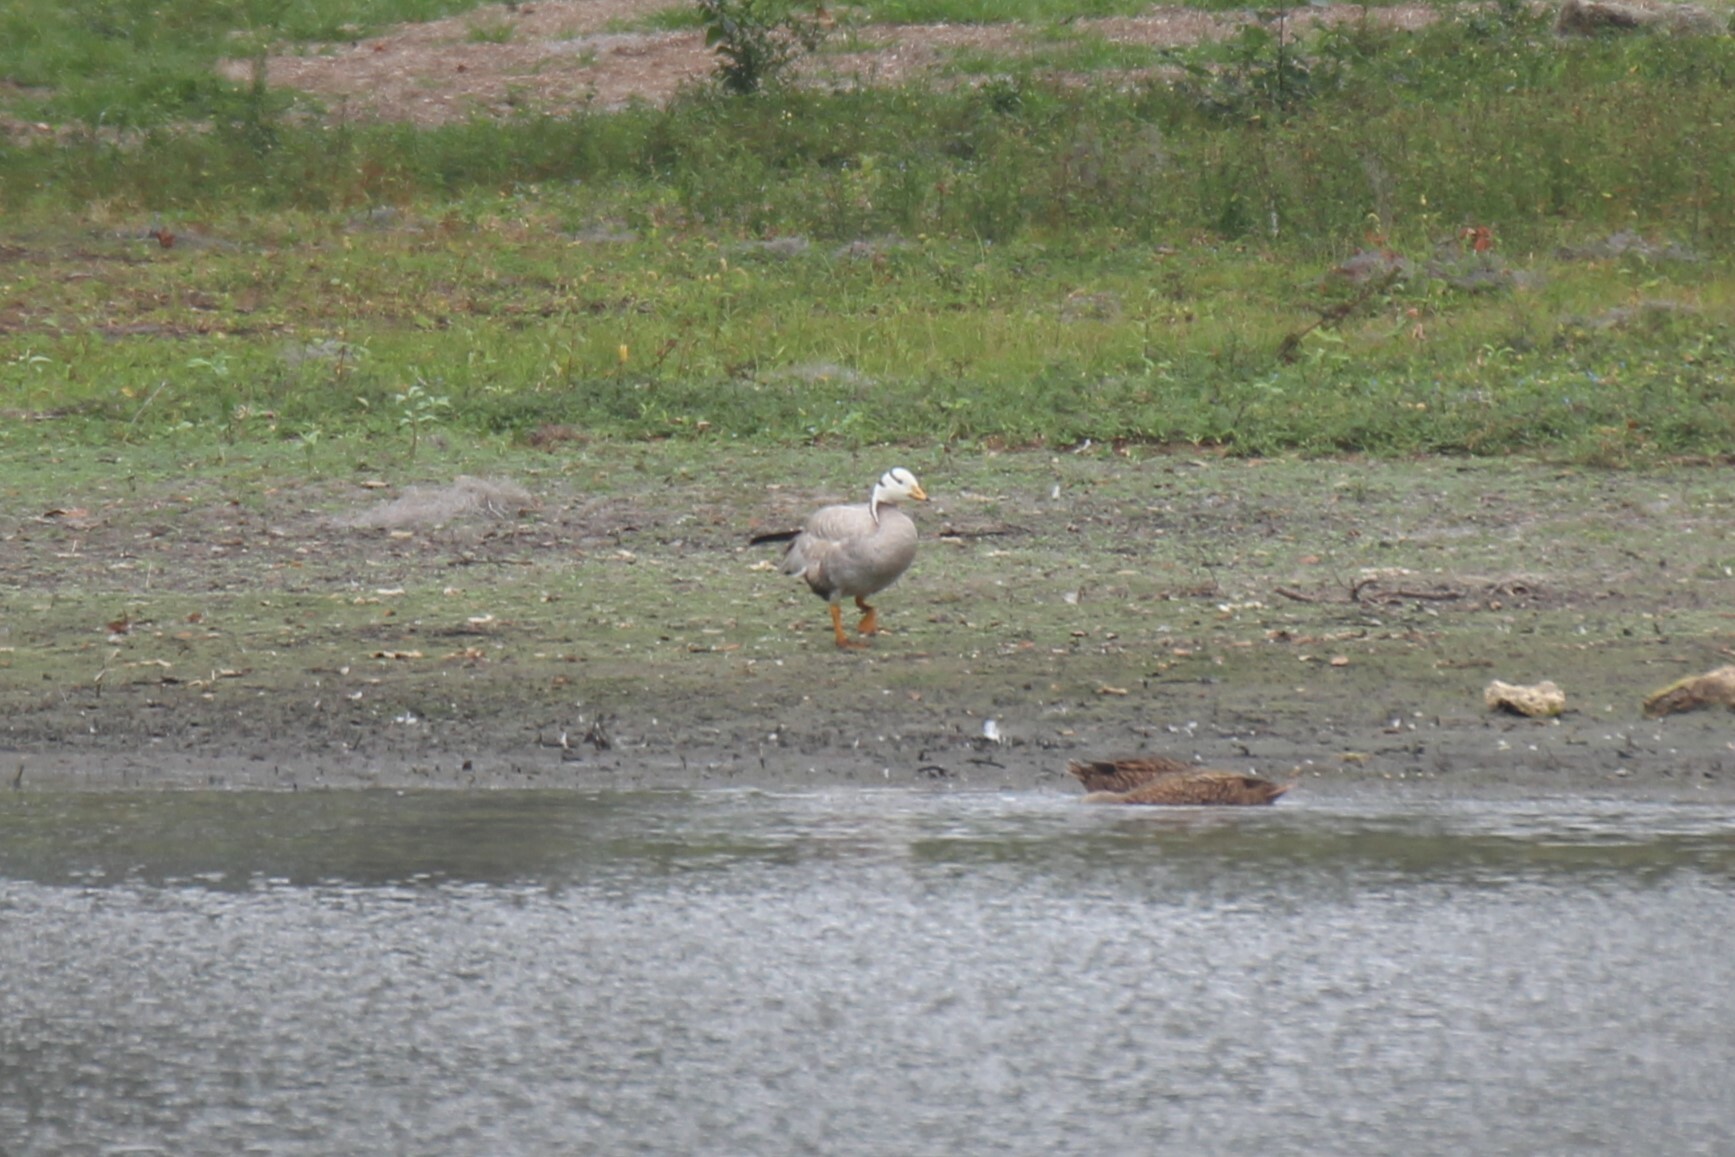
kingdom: Animalia
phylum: Chordata
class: Aves
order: Anseriformes
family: Anatidae
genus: Anser
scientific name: Anser indicus
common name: Bar-headed goose
